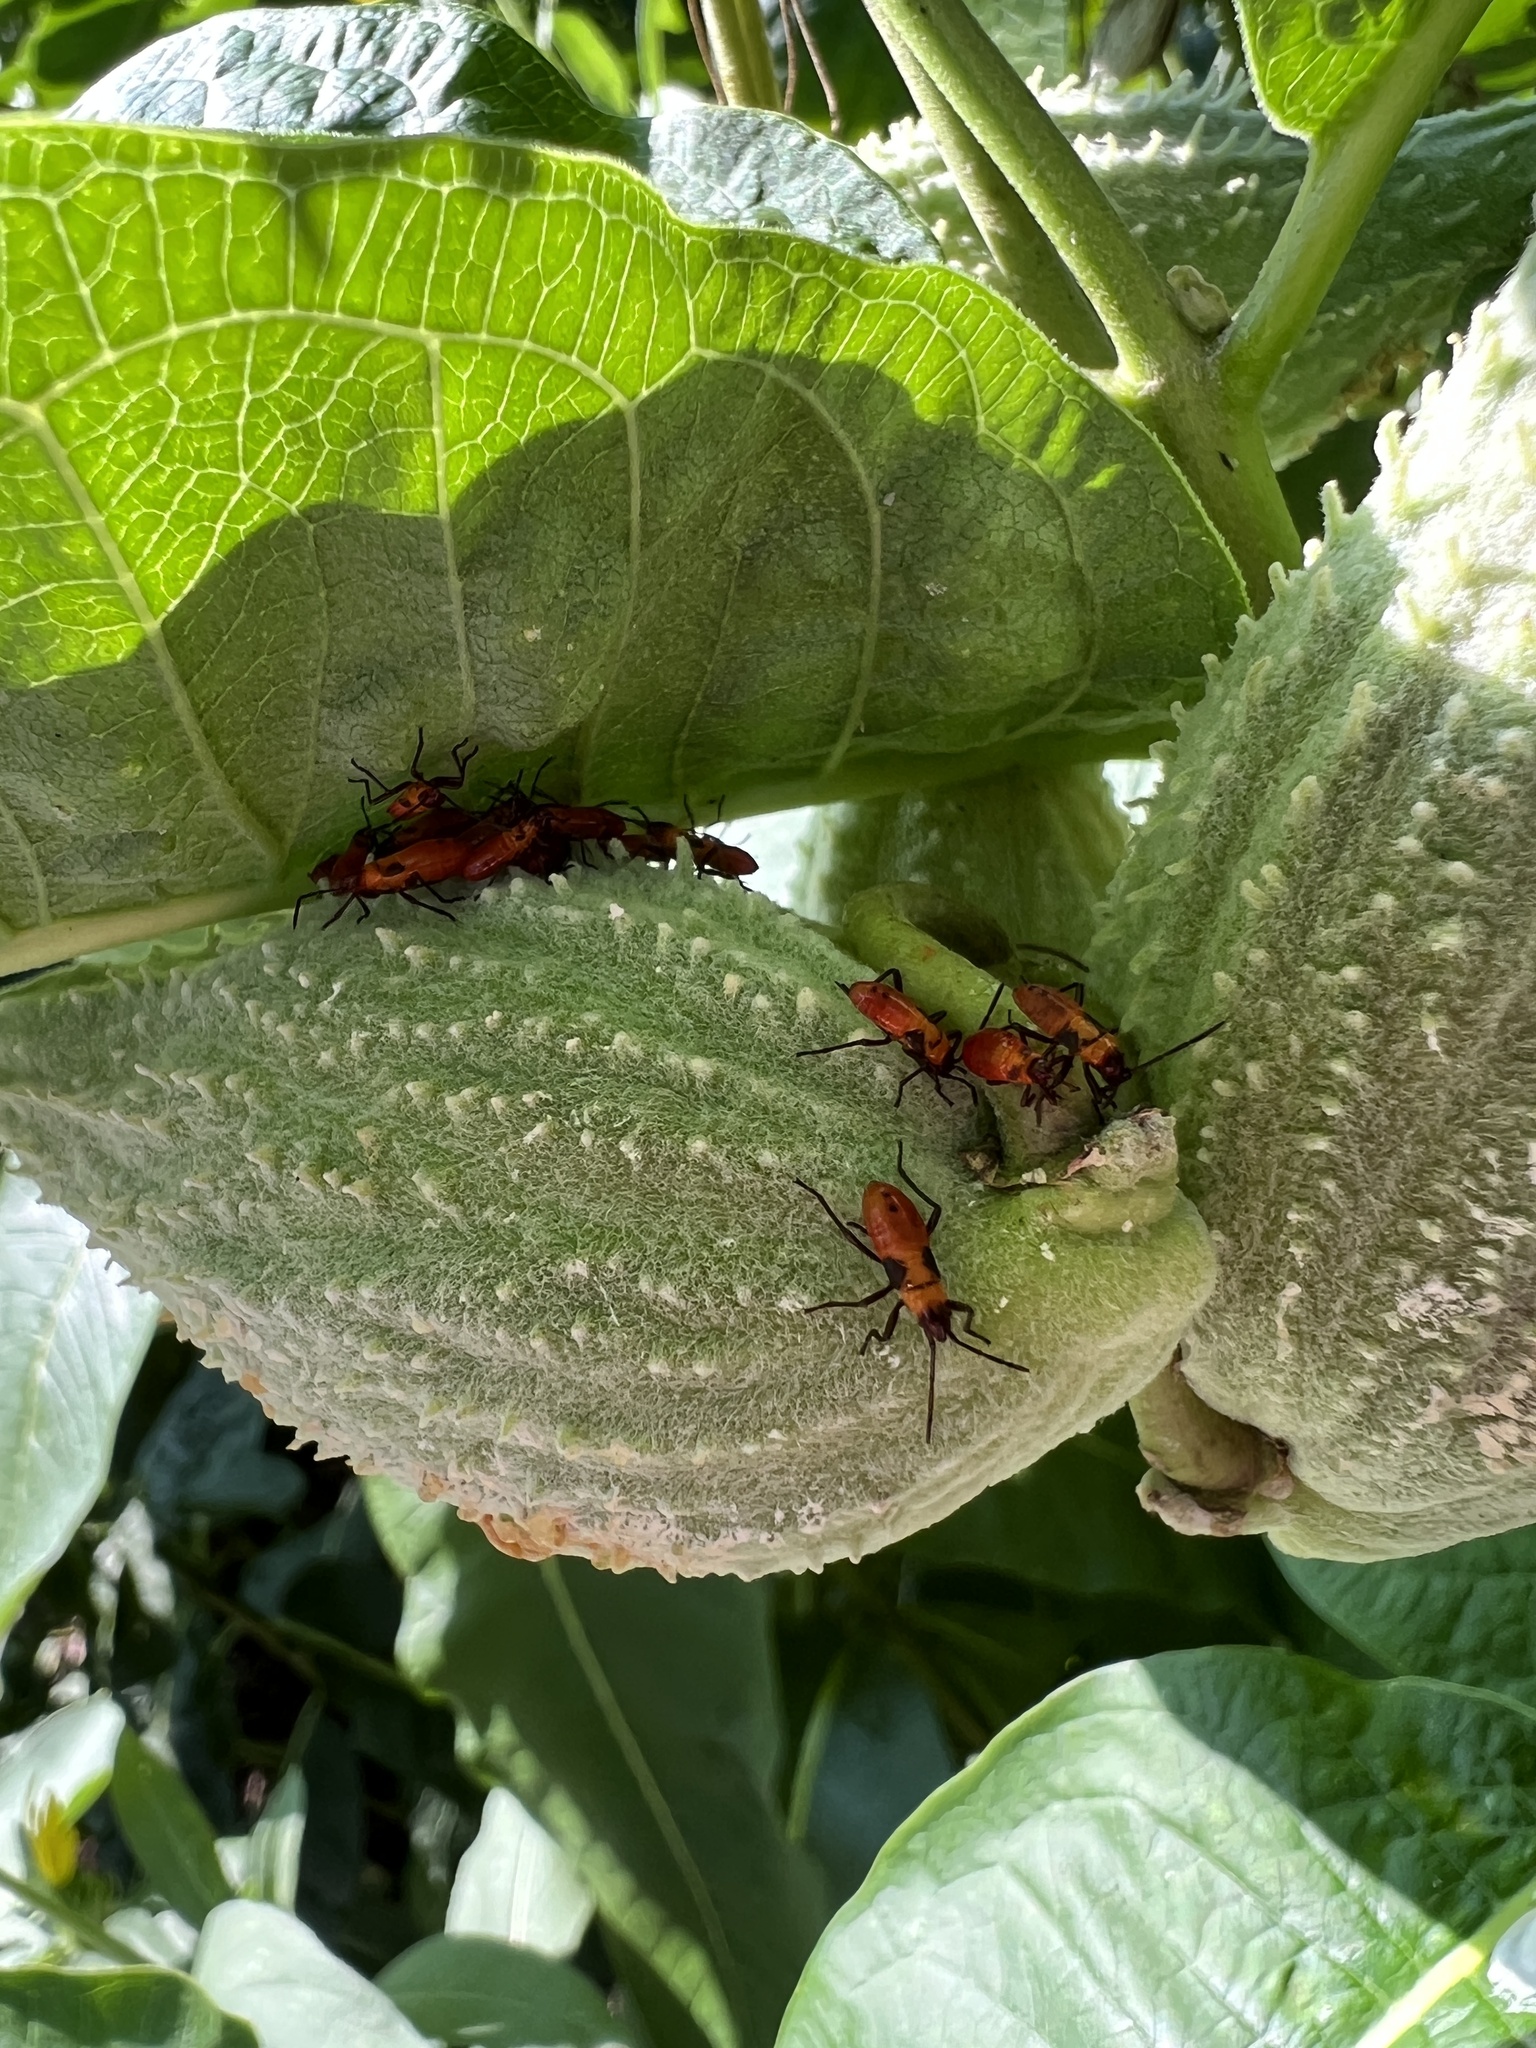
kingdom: Animalia
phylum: Arthropoda
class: Insecta
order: Hemiptera
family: Lygaeidae
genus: Oncopeltus
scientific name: Oncopeltus fasciatus
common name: Large milkweed bug
